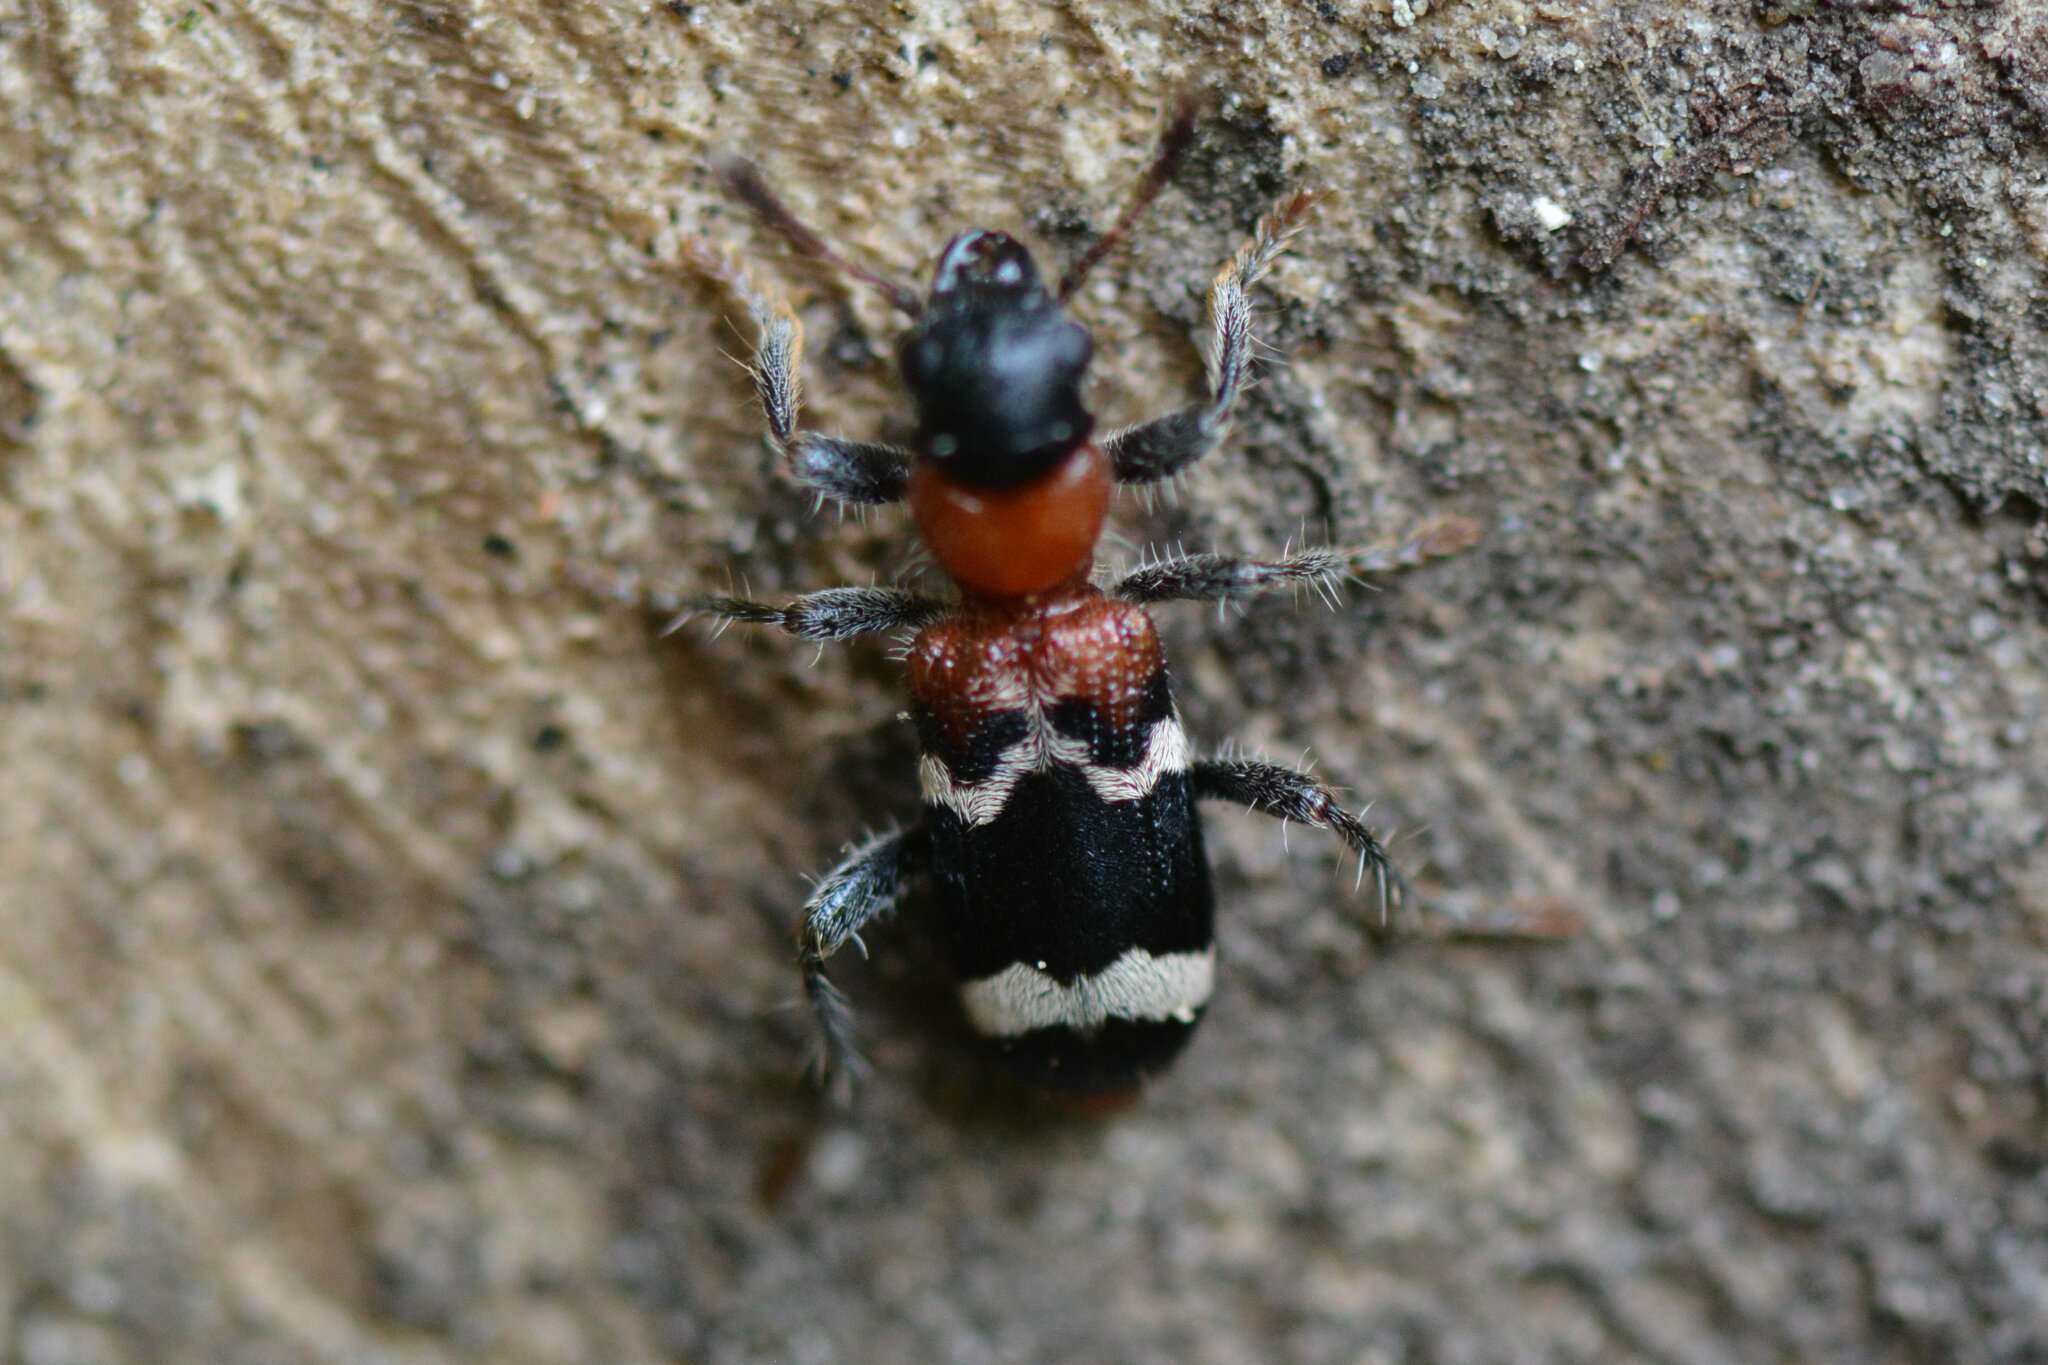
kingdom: Animalia
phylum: Arthropoda
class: Insecta
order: Coleoptera
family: Cleridae
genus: Thanasimus
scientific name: Thanasimus formicarius
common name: Ant beetle
